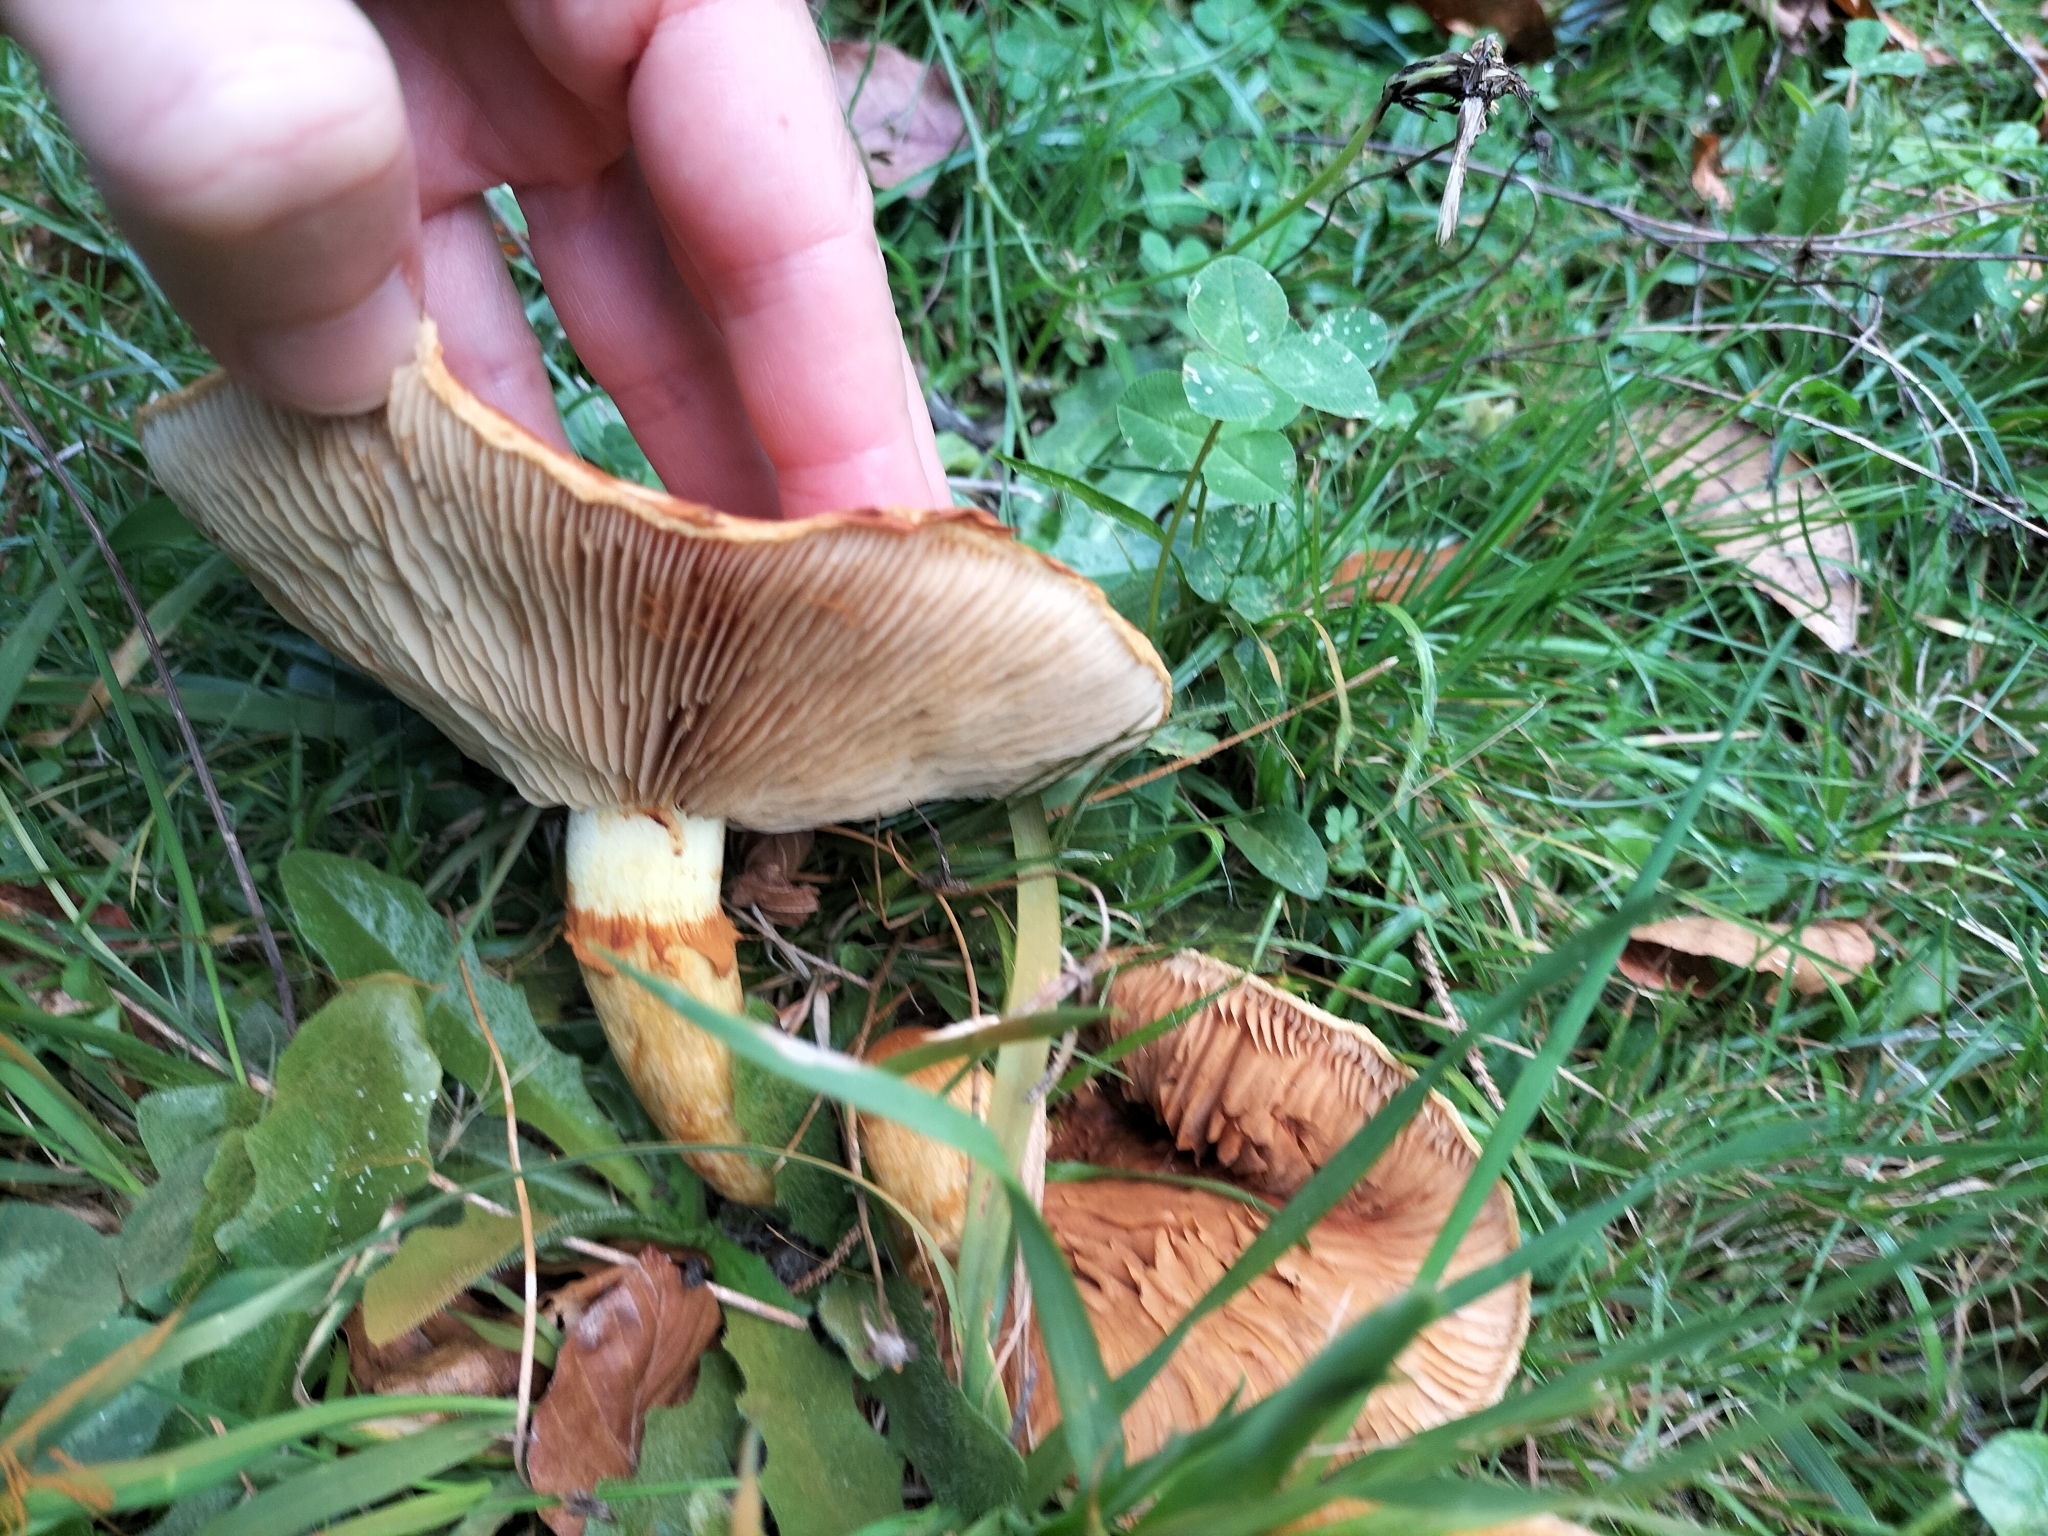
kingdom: Fungi
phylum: Basidiomycota
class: Agaricomycetes
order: Agaricales
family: Hymenogastraceae
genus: Gymnopilus
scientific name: Gymnopilus junonius
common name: Spectacular rustgill
